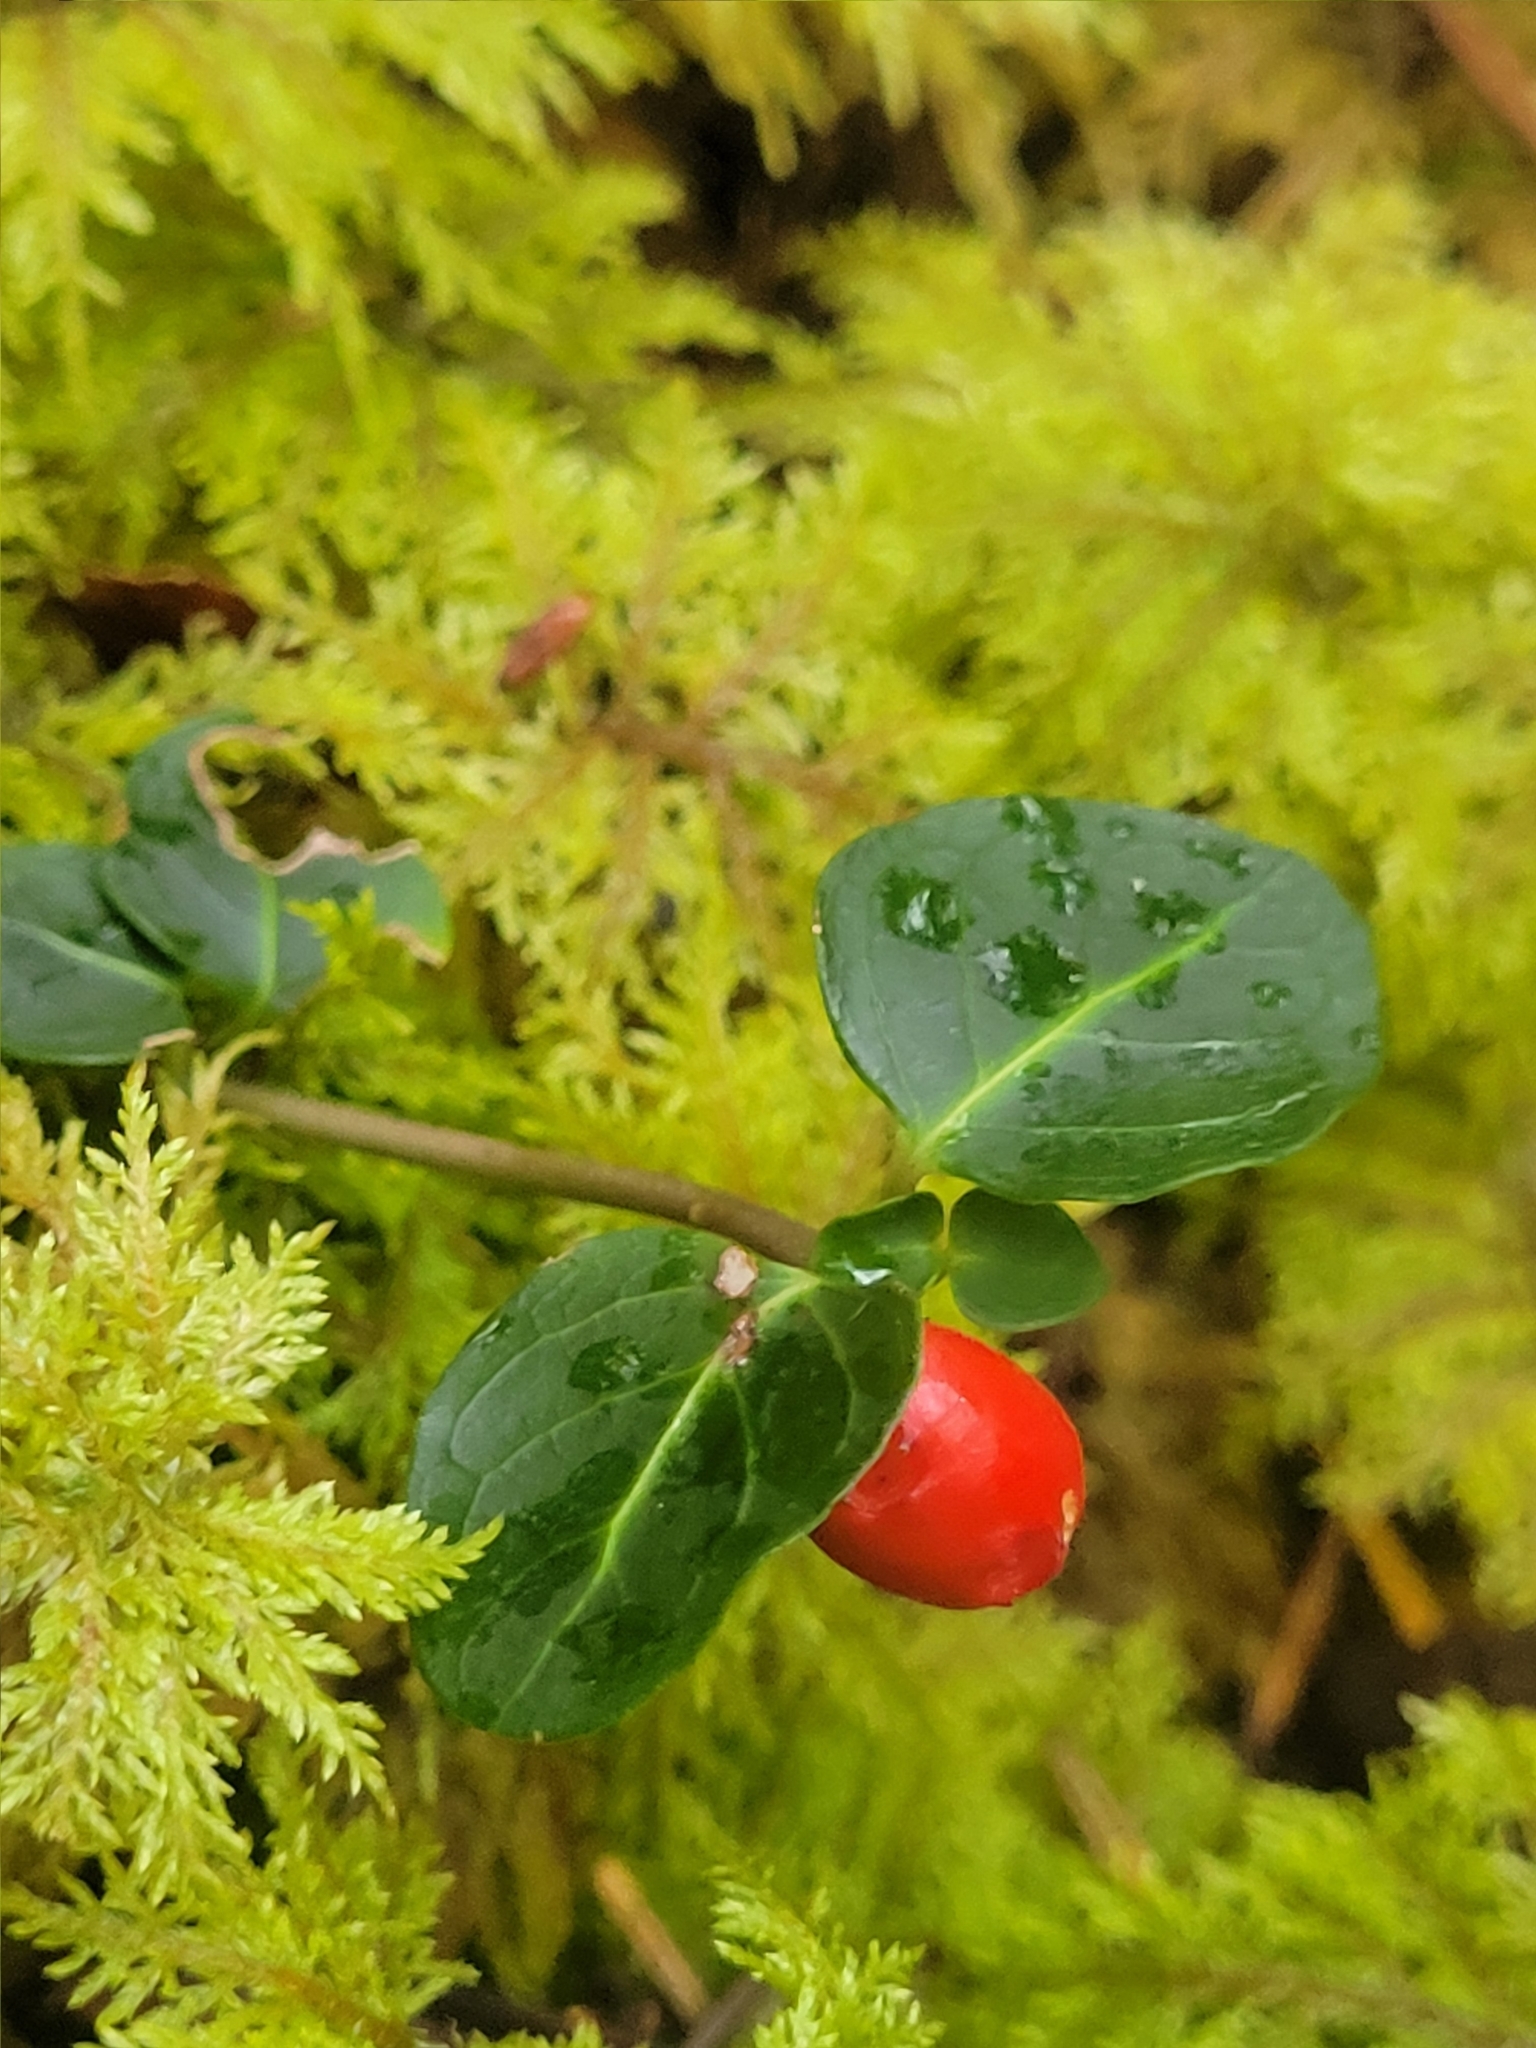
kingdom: Plantae
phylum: Tracheophyta
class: Magnoliopsida
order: Gentianales
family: Rubiaceae
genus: Mitchella
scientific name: Mitchella repens
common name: Partridge-berry
